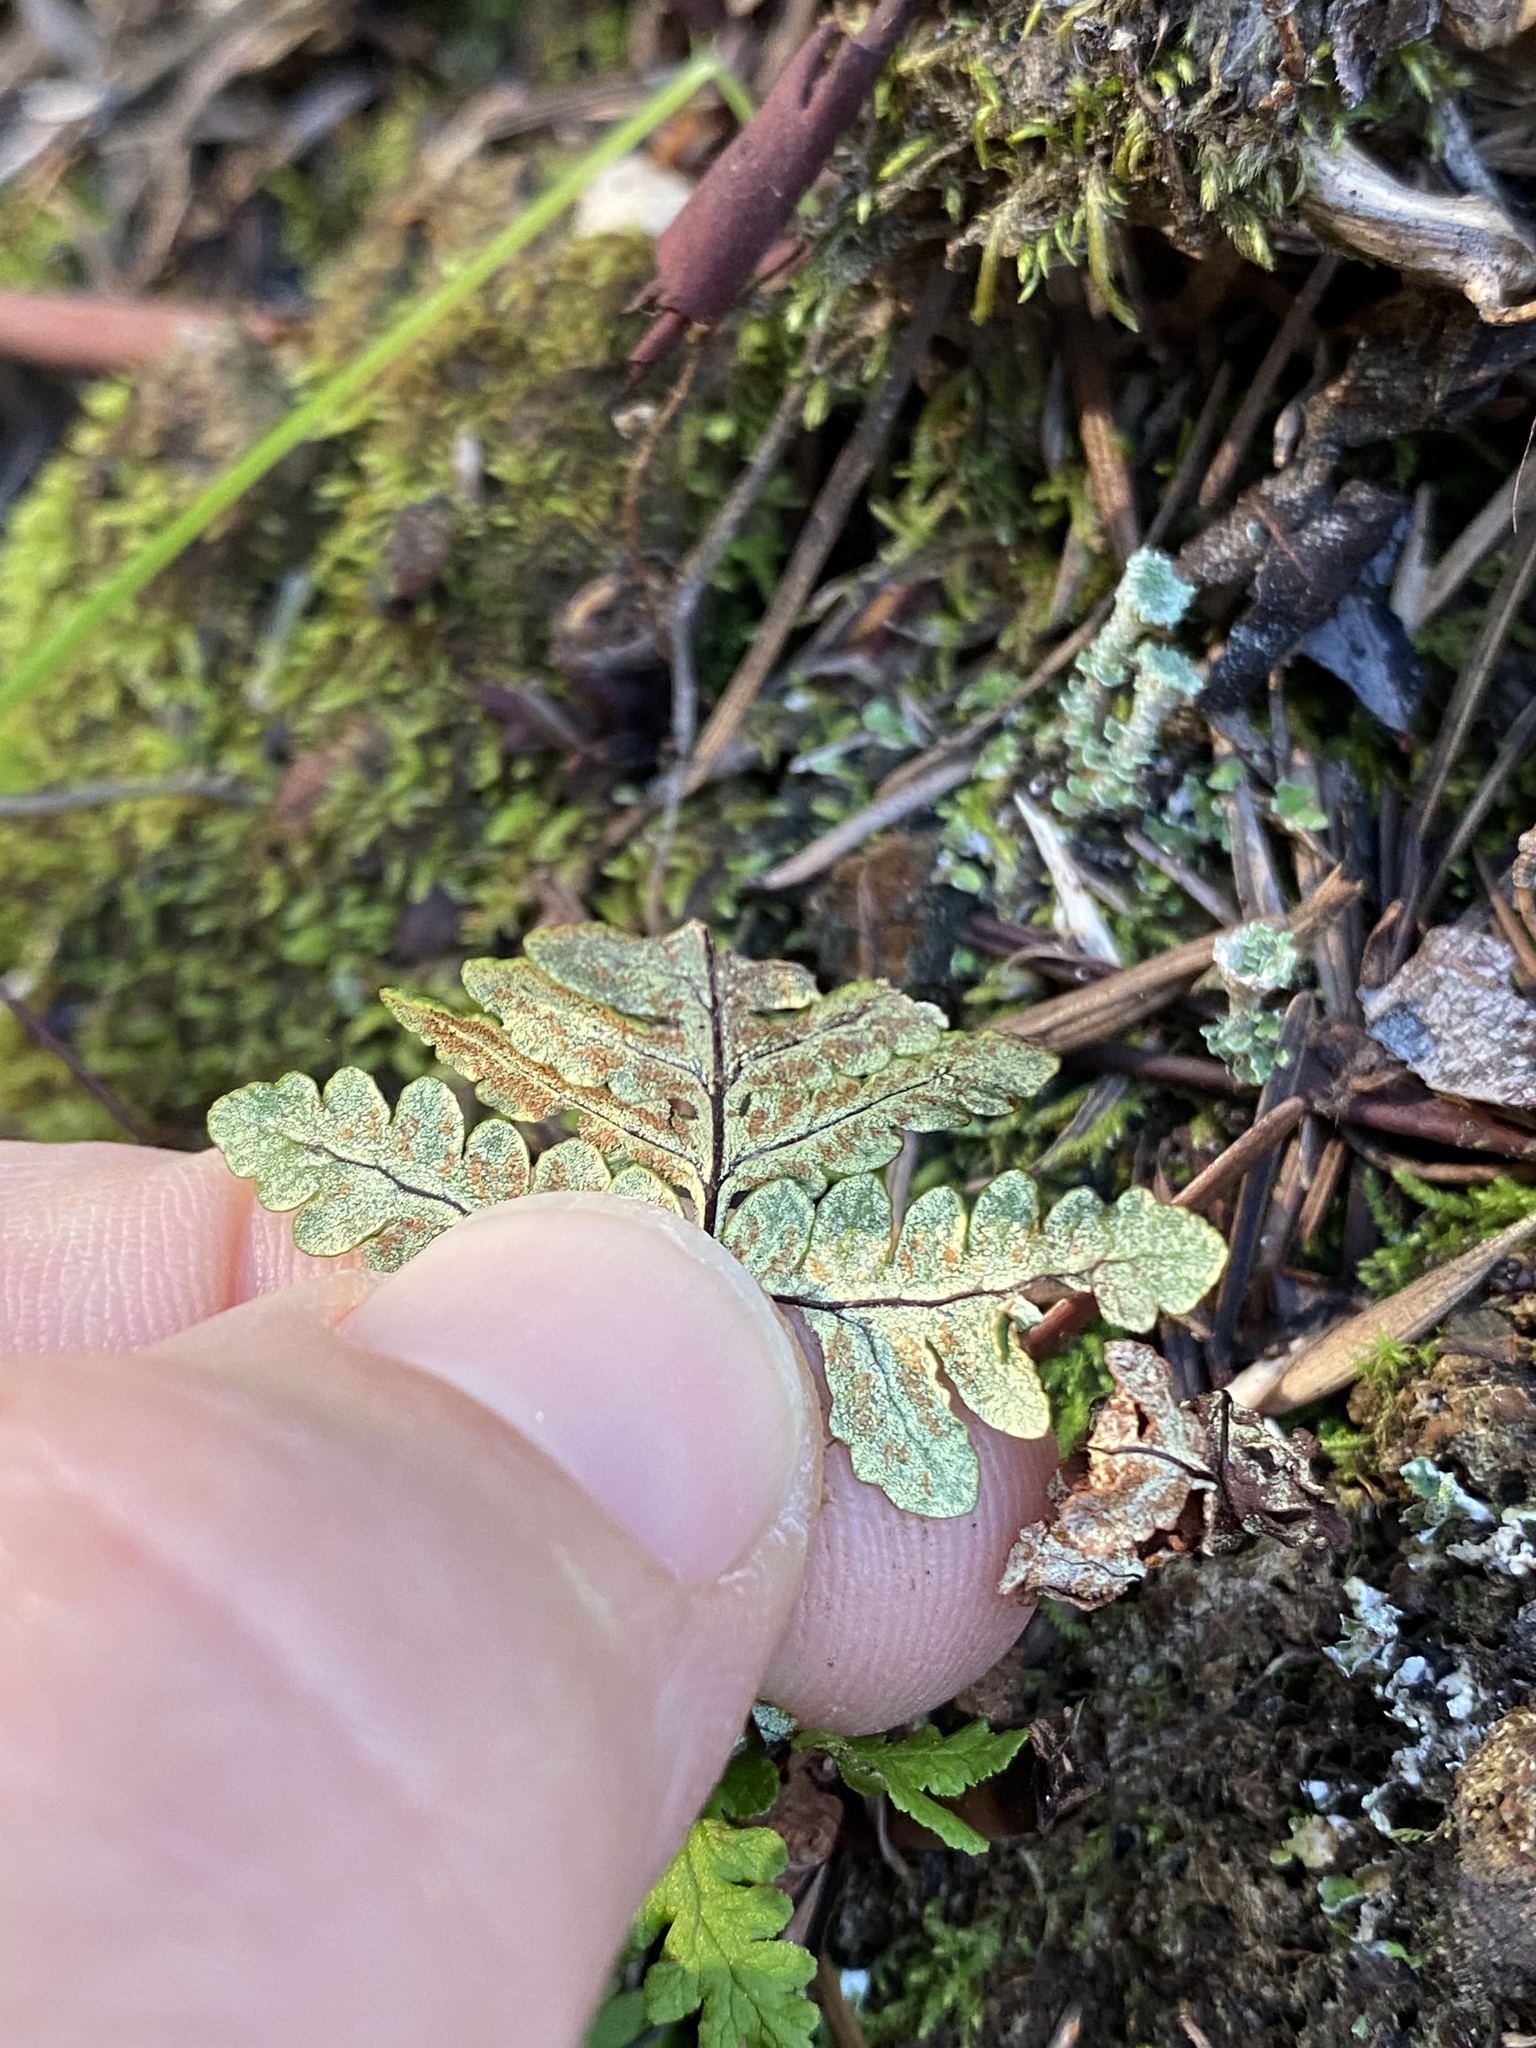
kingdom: Plantae
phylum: Tracheophyta
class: Polypodiopsida
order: Polypodiales
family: Pteridaceae
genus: Pentagramma
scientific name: Pentagramma triangularis
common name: Gold fern
